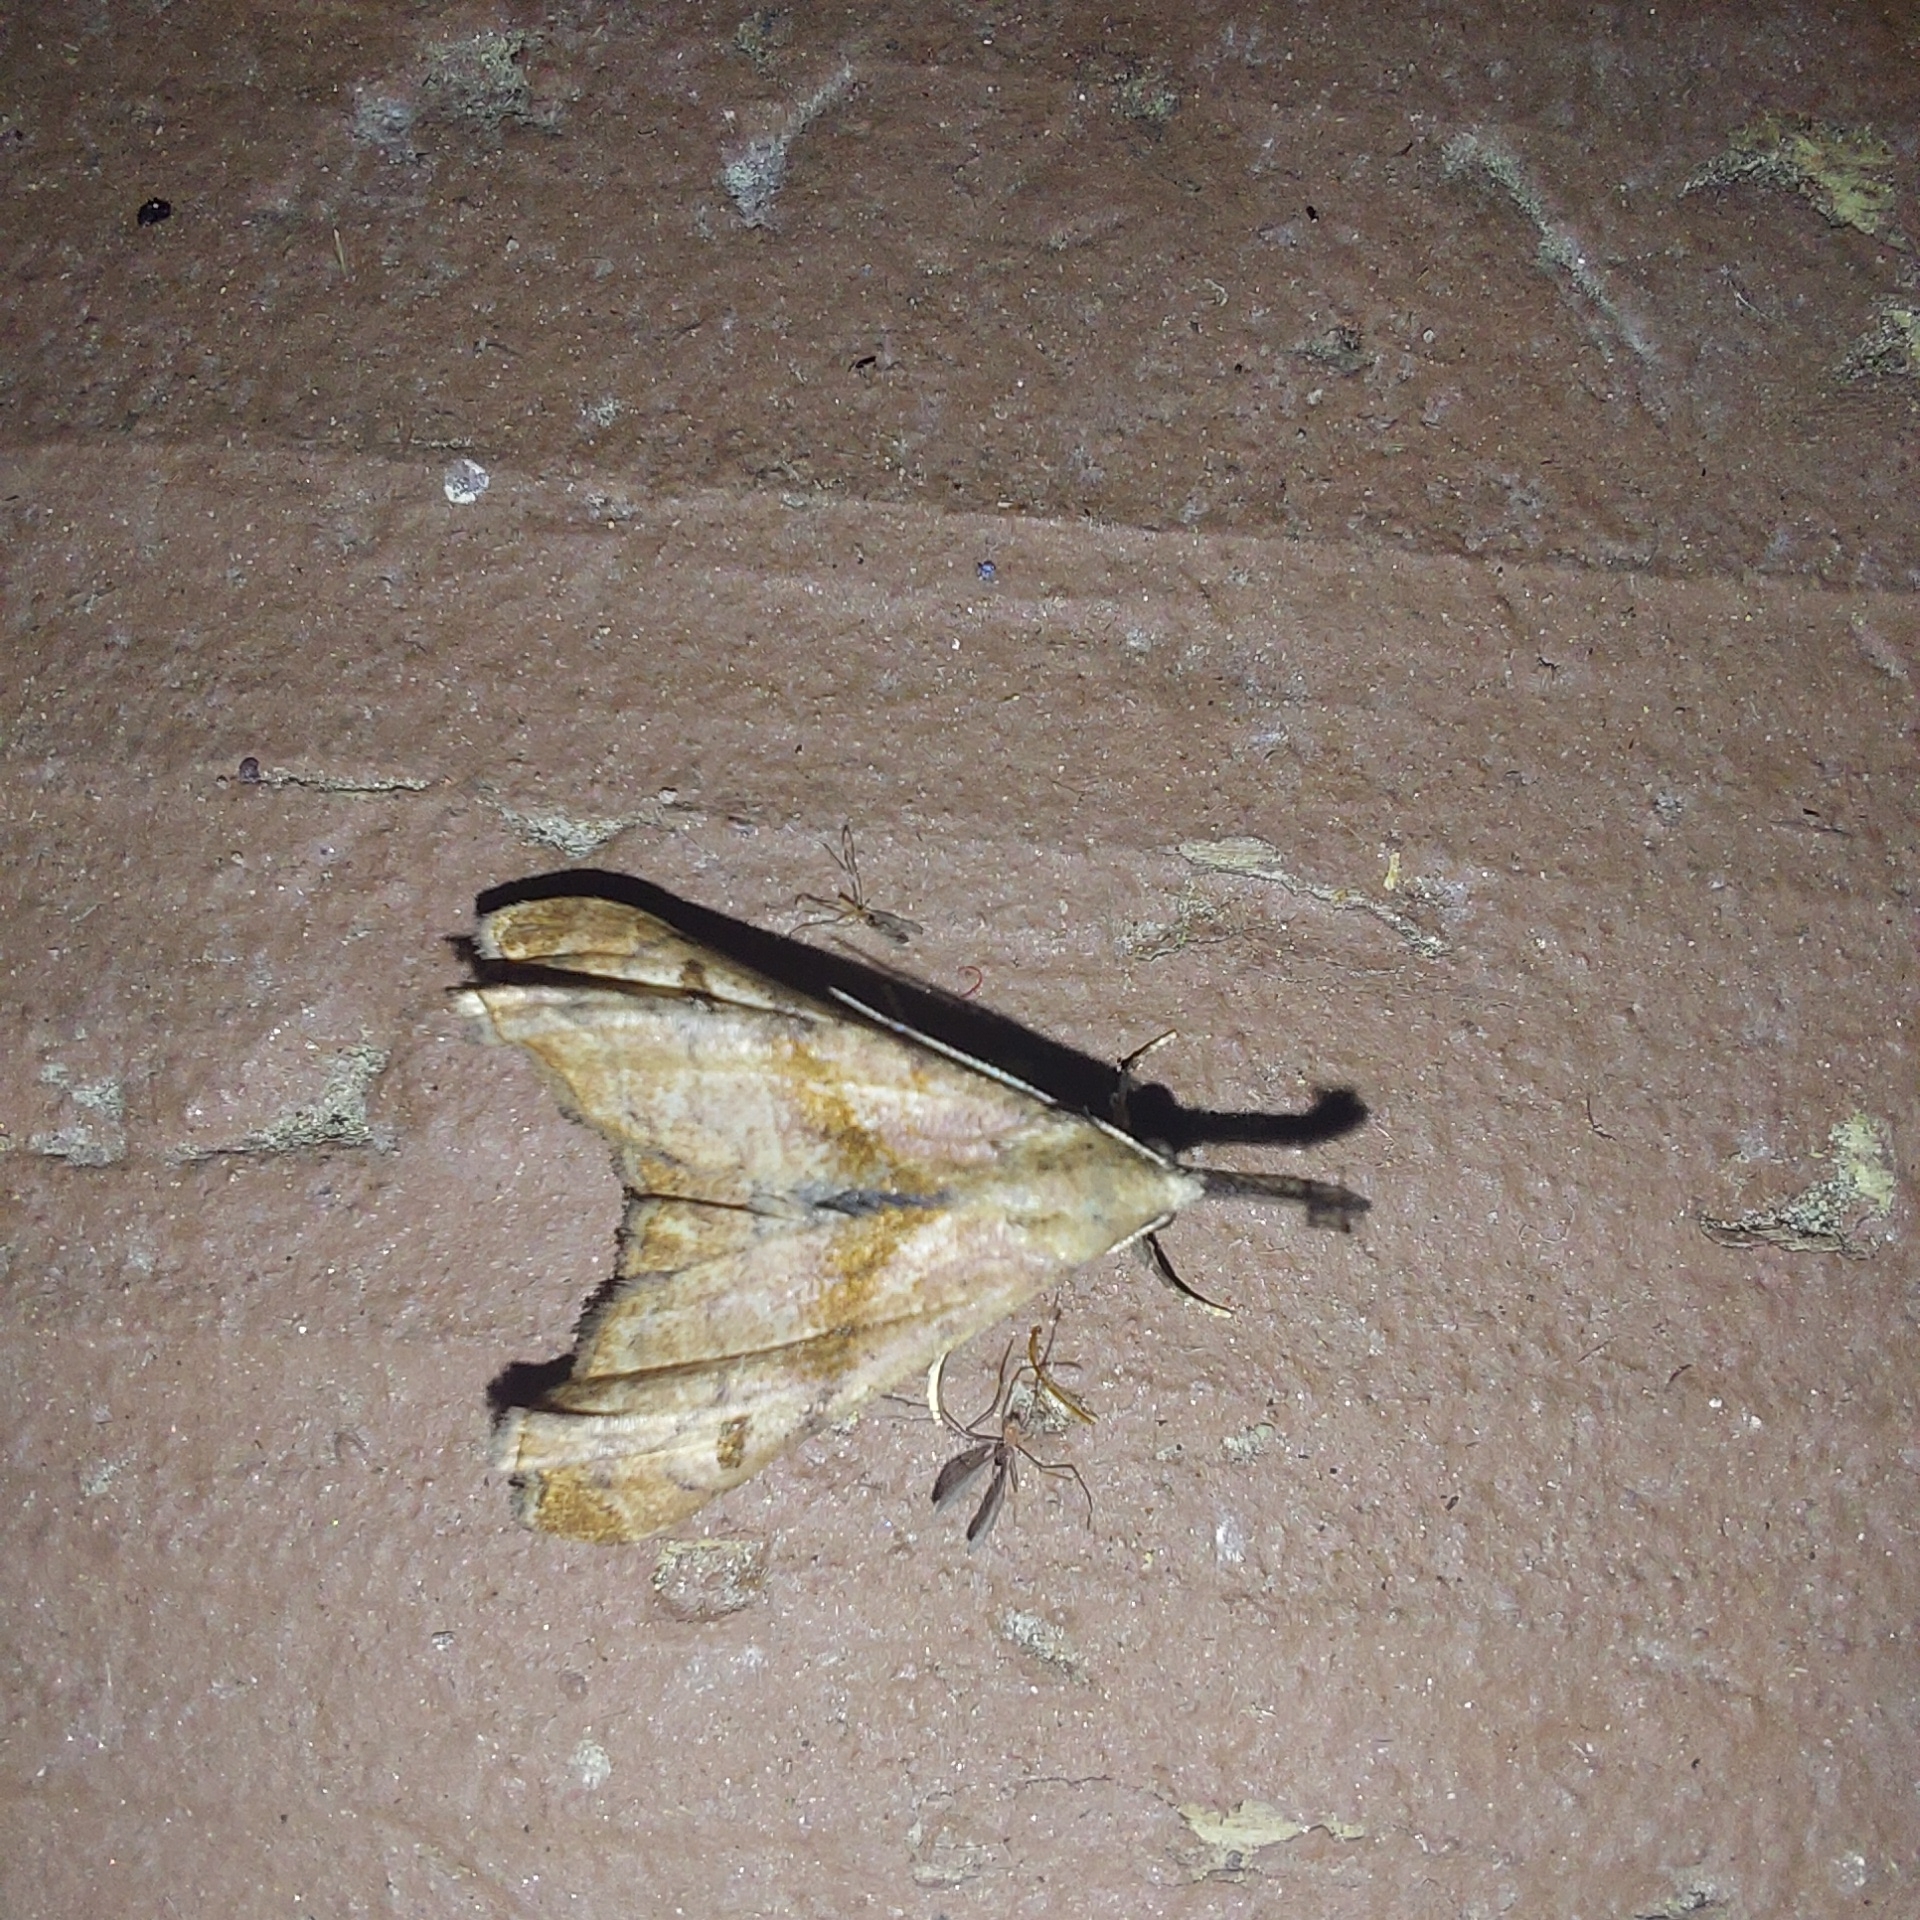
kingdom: Animalia
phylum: Arthropoda
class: Insecta
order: Lepidoptera
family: Erebidae
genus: Palthis
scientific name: Palthis angulalis
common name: Dark-spotted palthis moth
